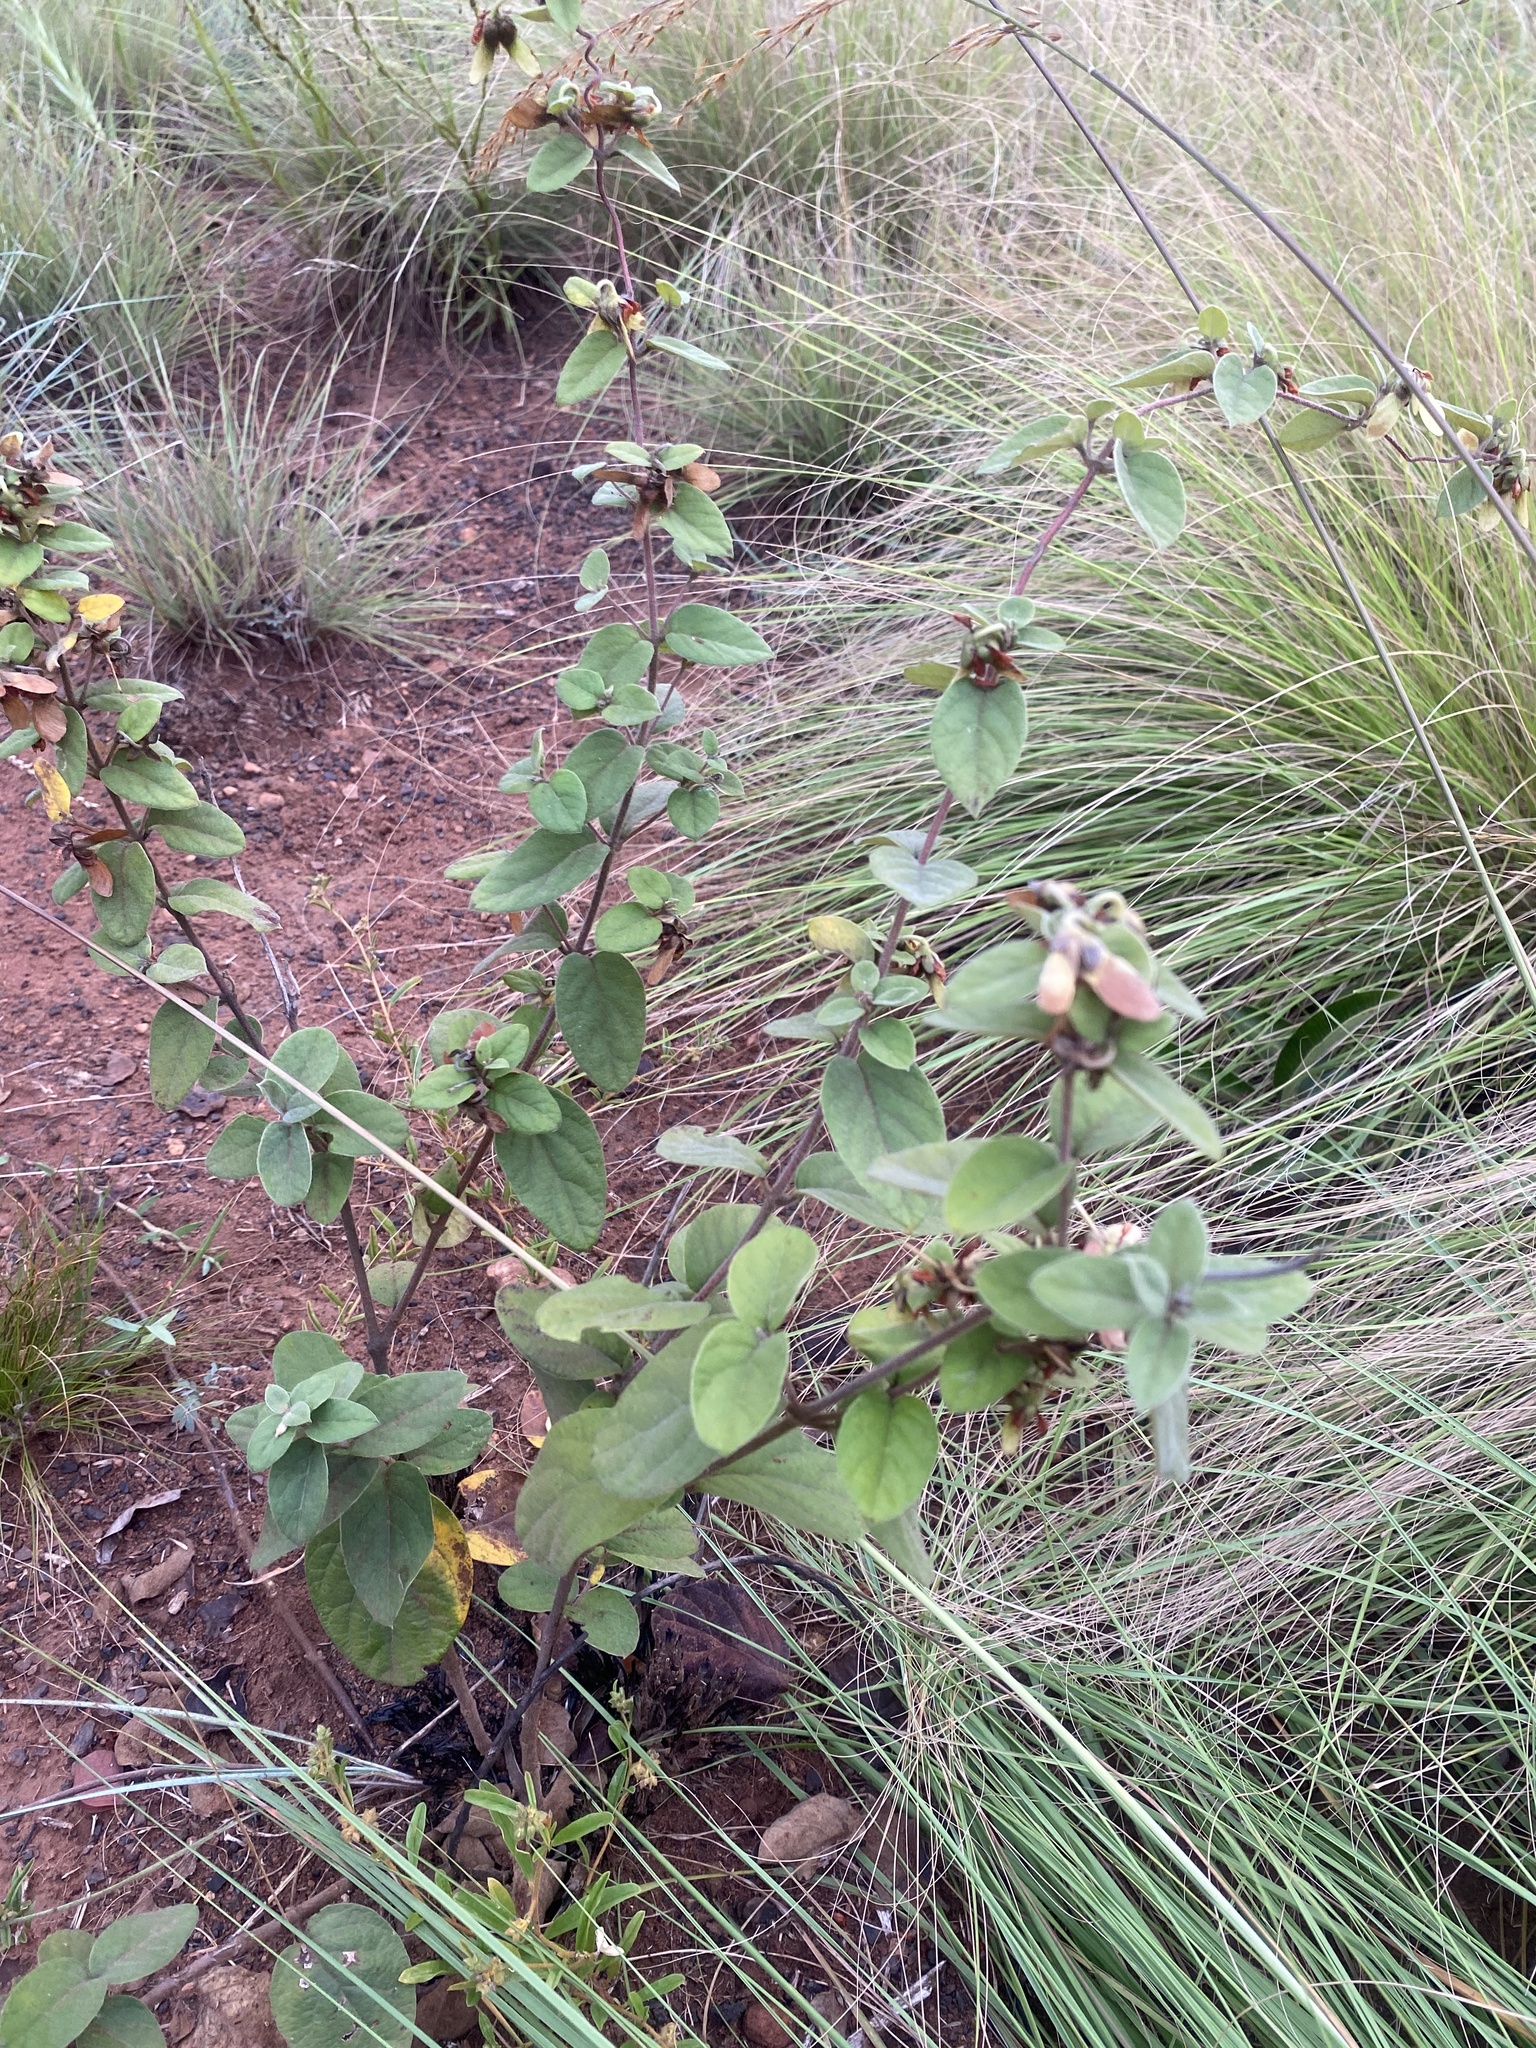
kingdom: Plantae
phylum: Tracheophyta
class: Magnoliopsida
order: Malpighiales
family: Malpighiaceae
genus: Sphedamnocarpus
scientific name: Sphedamnocarpus pruriens
